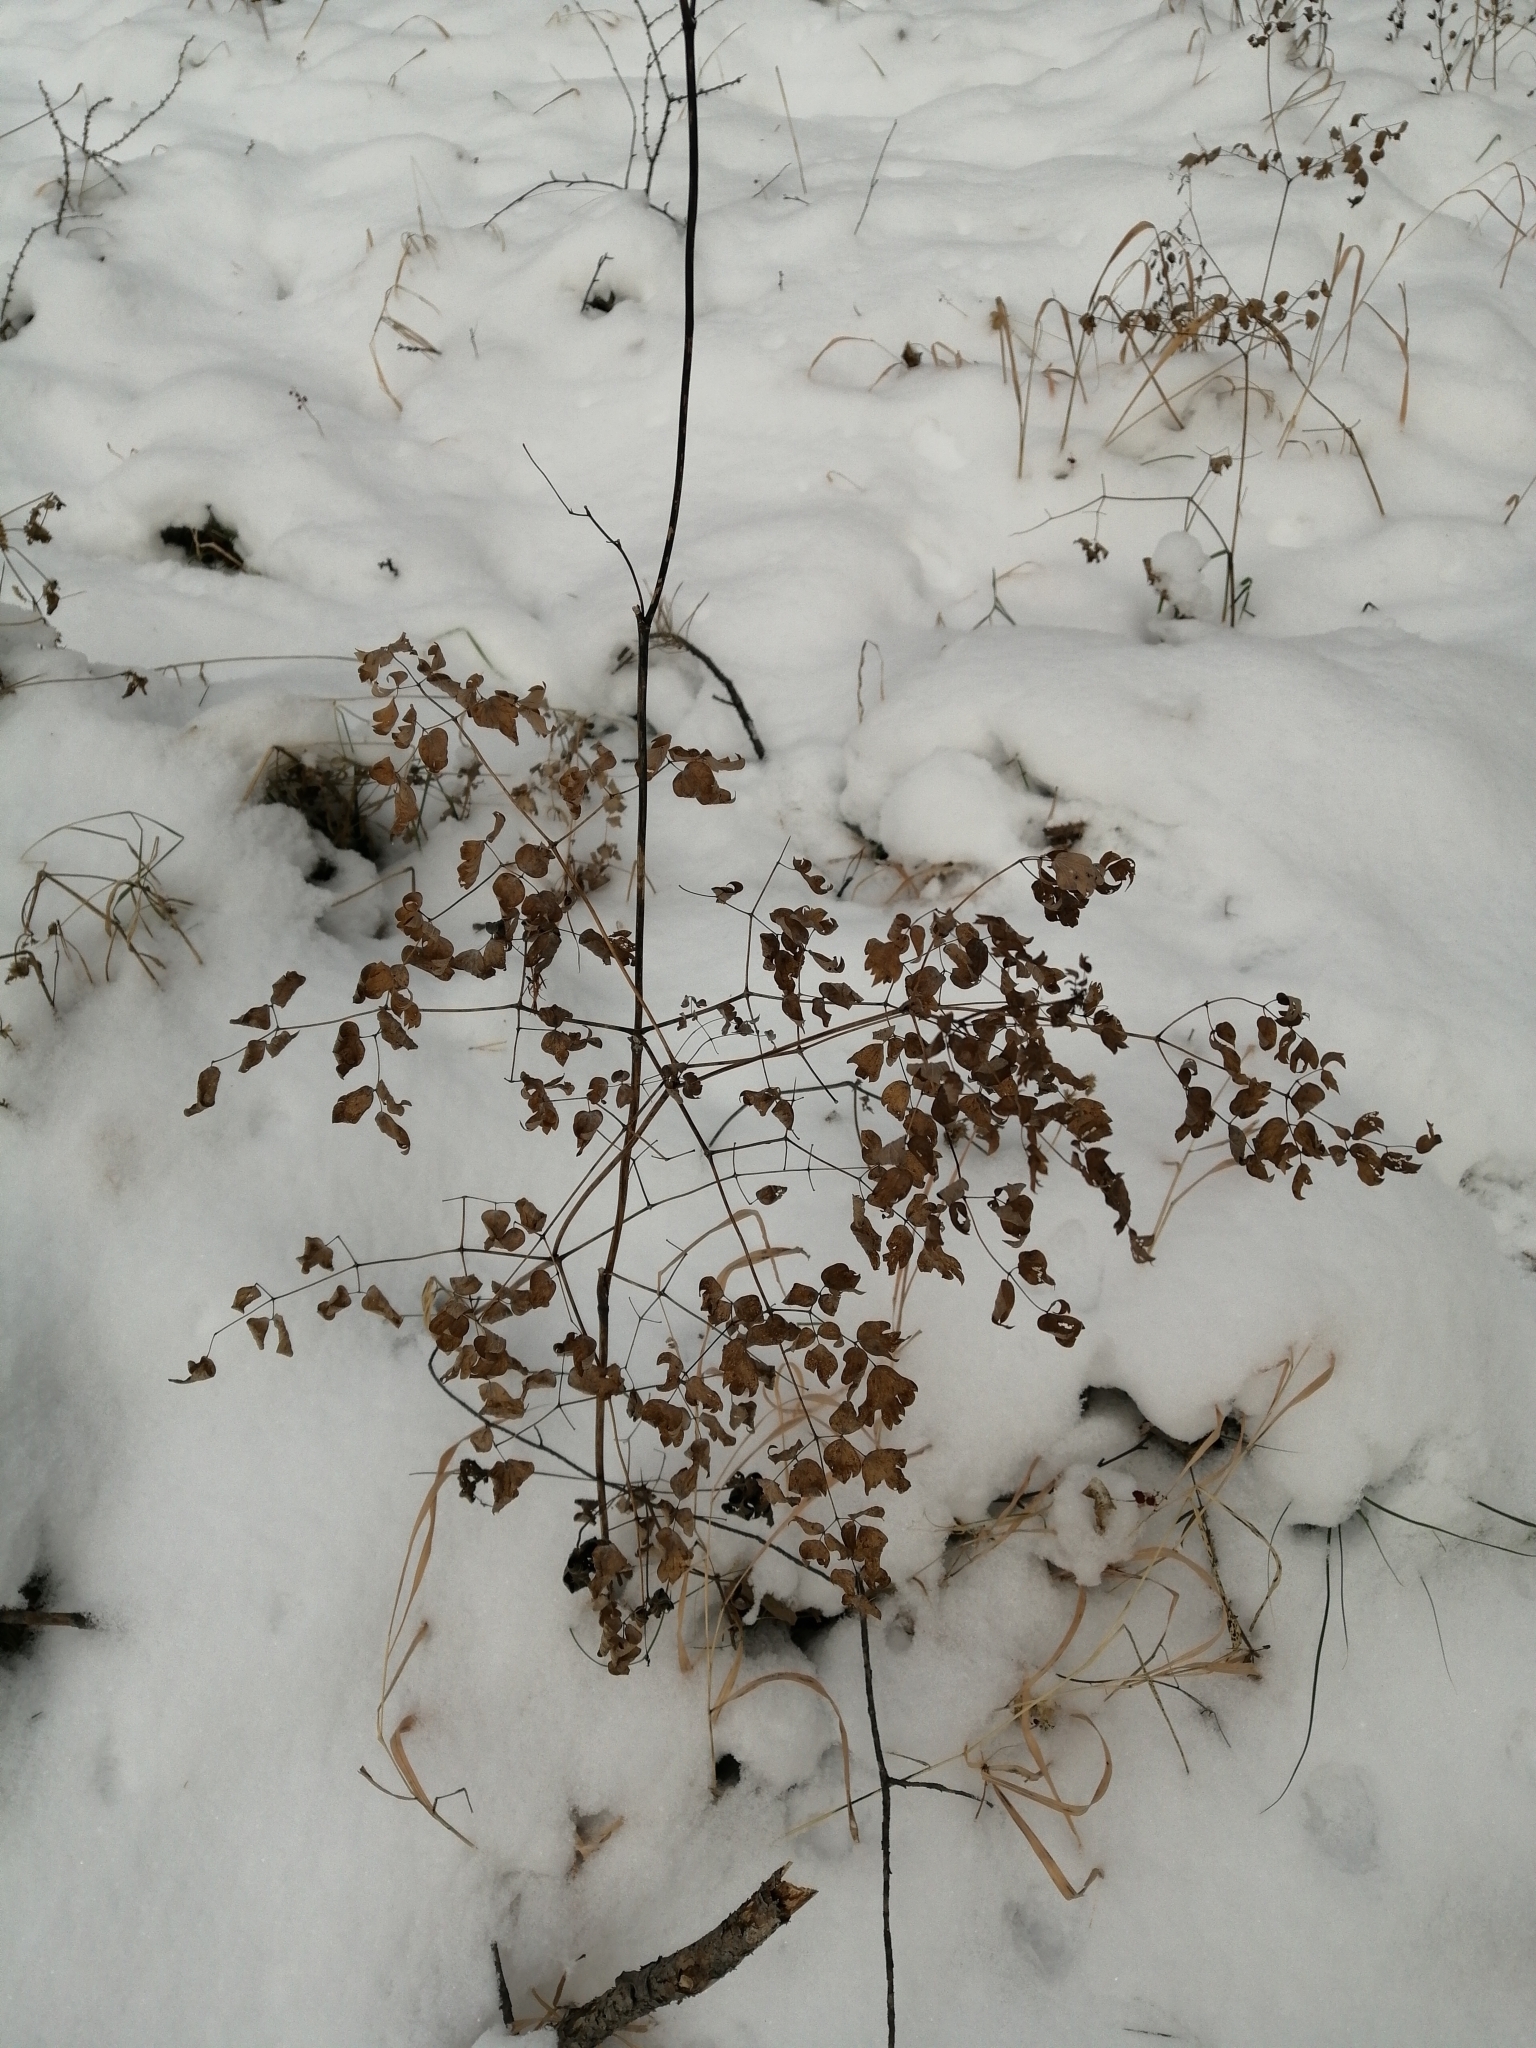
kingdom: Plantae
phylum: Tracheophyta
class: Magnoliopsida
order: Ranunculales
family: Ranunculaceae
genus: Thalictrum
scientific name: Thalictrum minus
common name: Lesser meadow-rue
